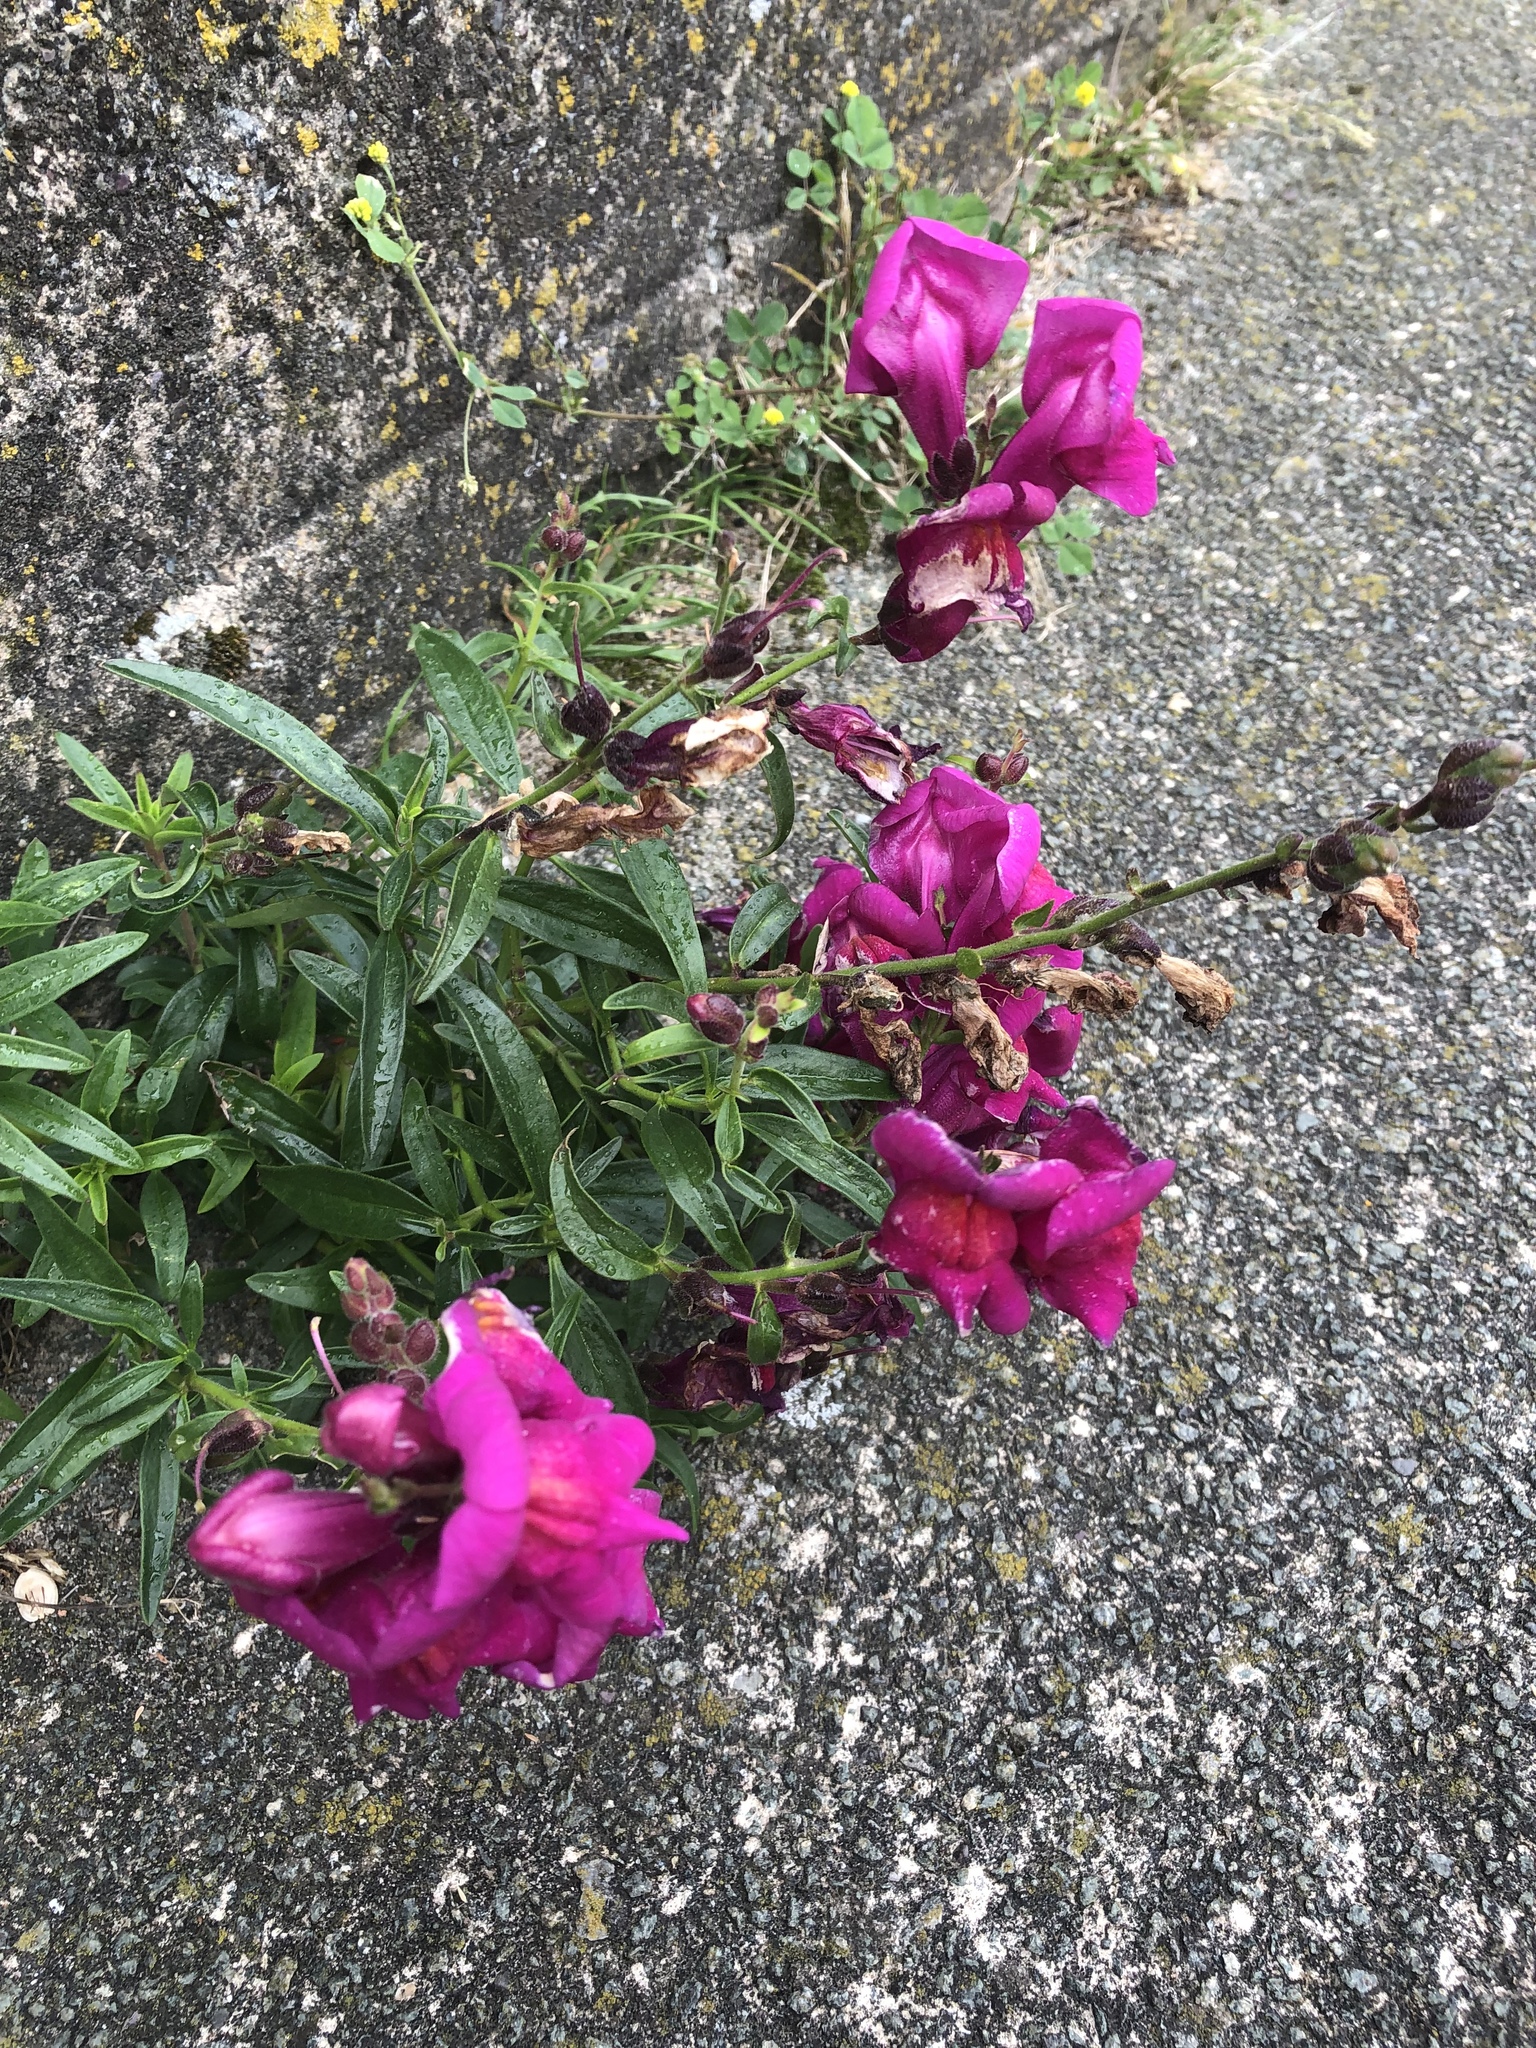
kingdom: Plantae
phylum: Tracheophyta
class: Magnoliopsida
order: Lamiales
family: Plantaginaceae
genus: Antirrhinum
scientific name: Antirrhinum majus
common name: Snapdragon
